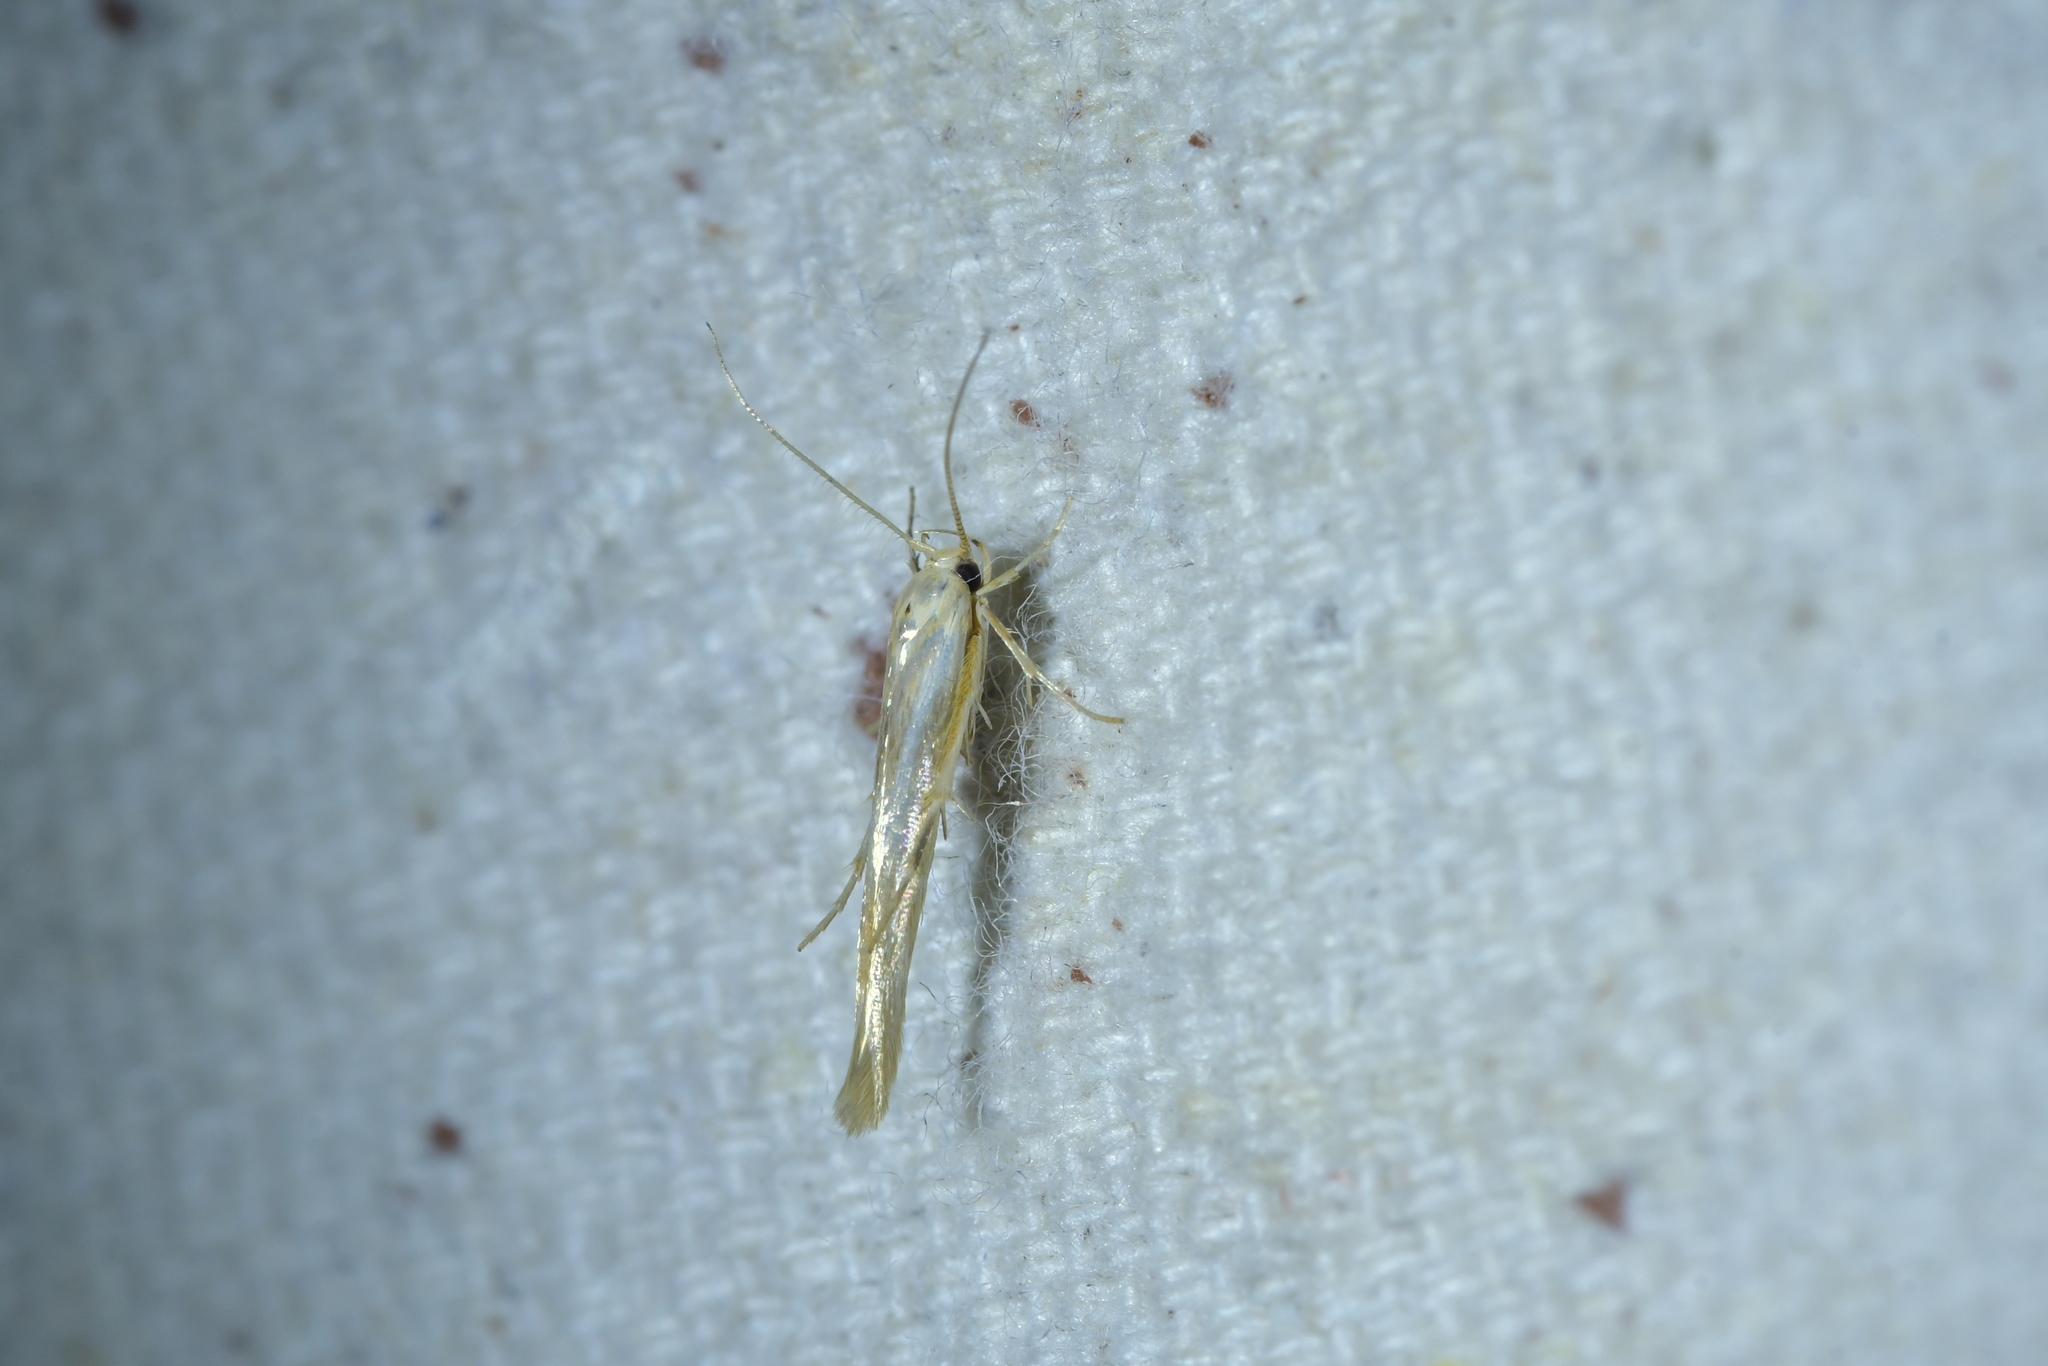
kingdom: Animalia
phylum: Arthropoda
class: Insecta
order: Lepidoptera
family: Stathmopodidae
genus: Stathmopoda
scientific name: Stathmopoda aposema
